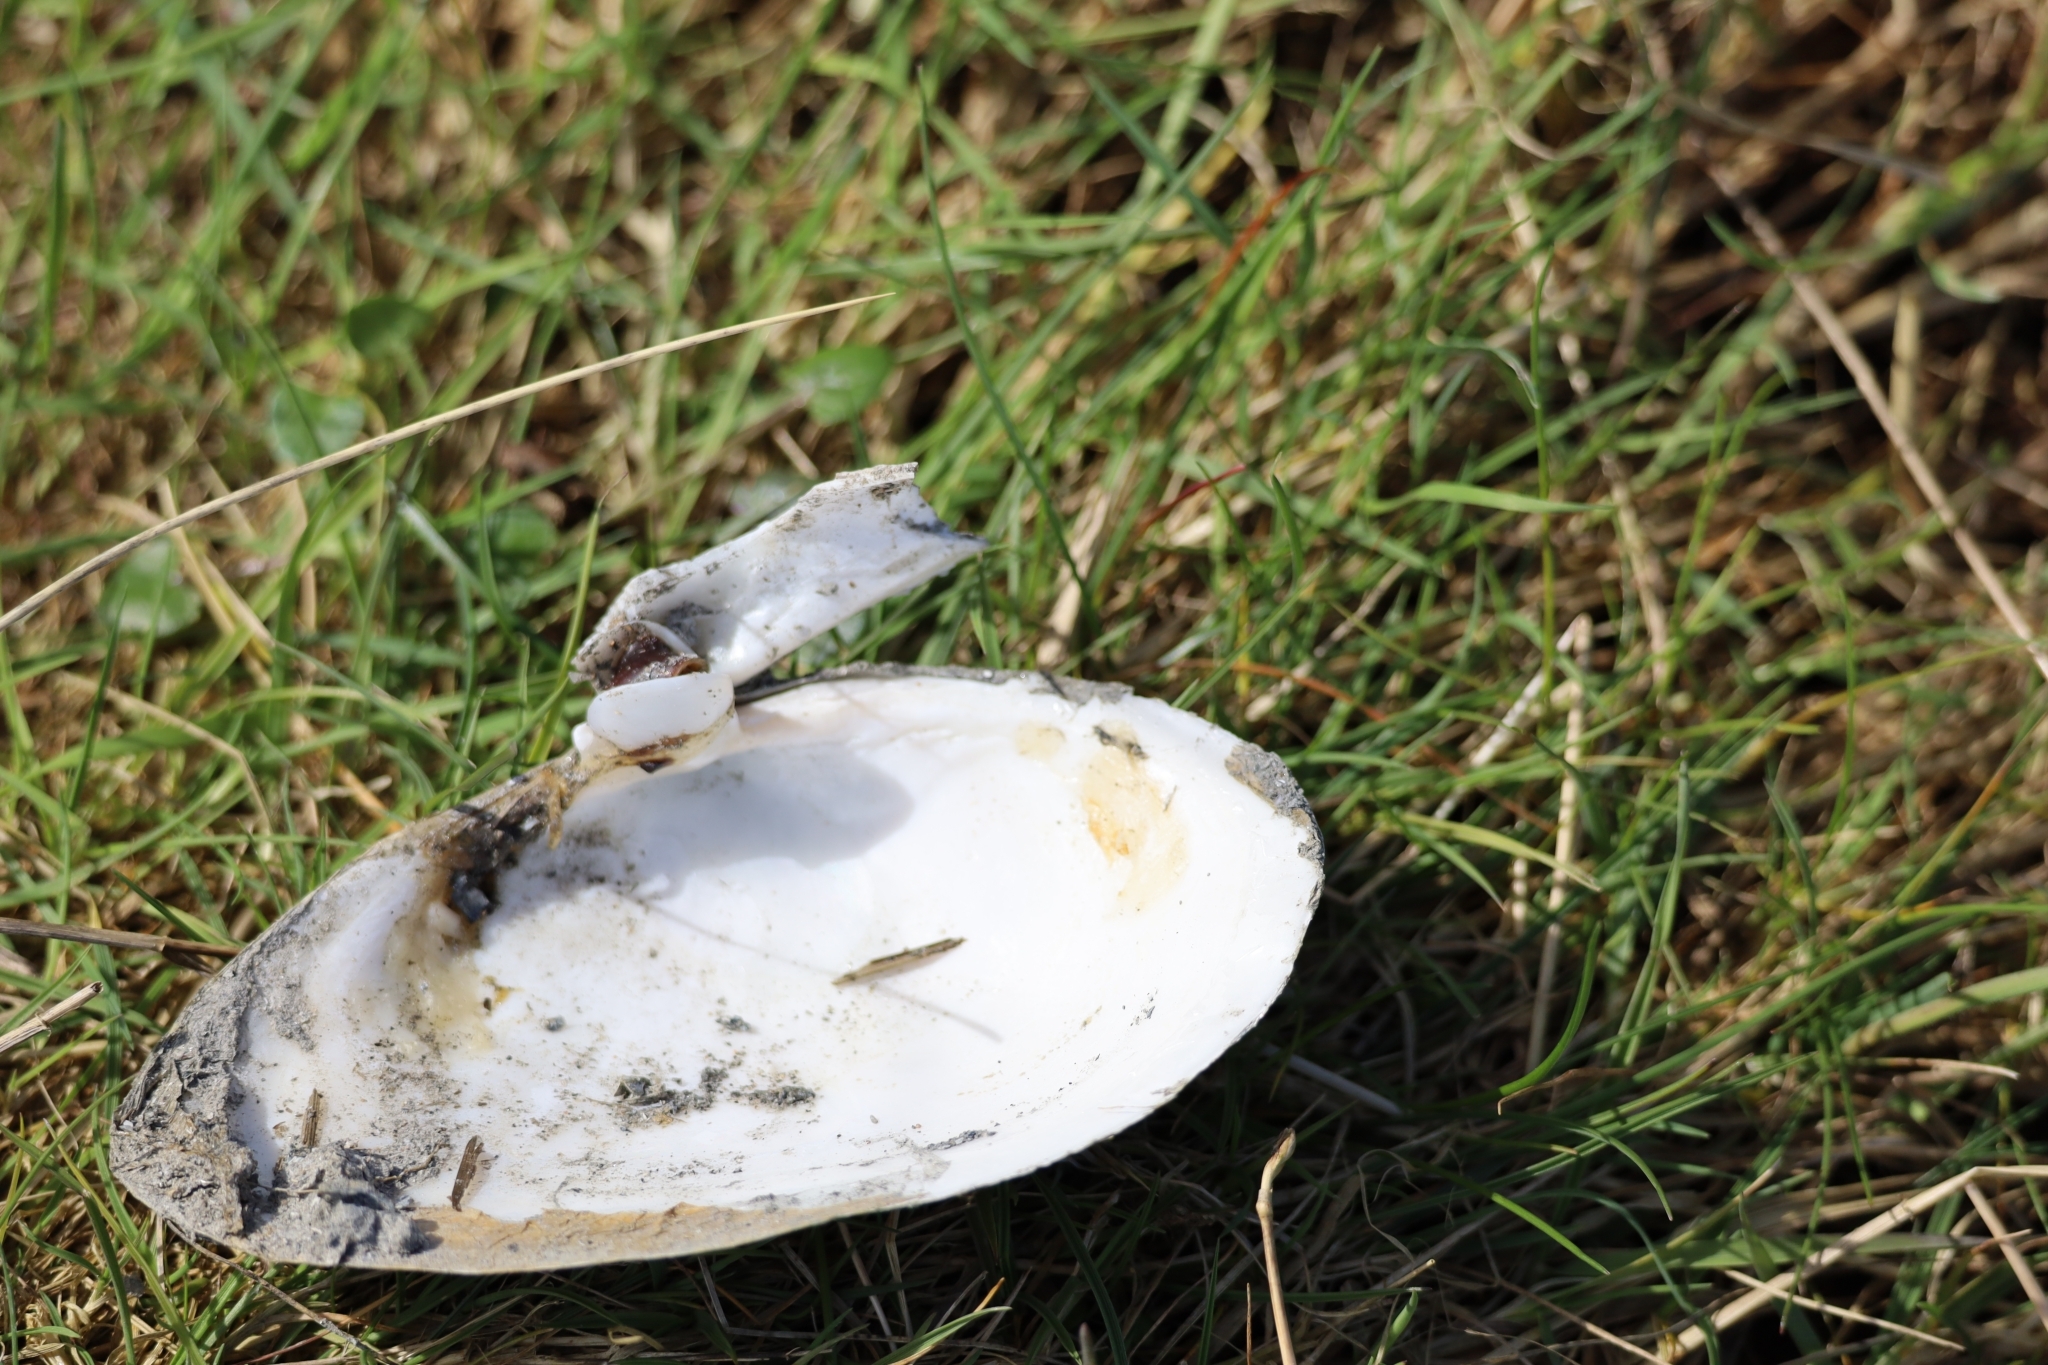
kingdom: Animalia
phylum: Mollusca
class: Bivalvia
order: Myida
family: Myidae
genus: Mya
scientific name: Mya arenaria
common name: Soft-shelled clam
